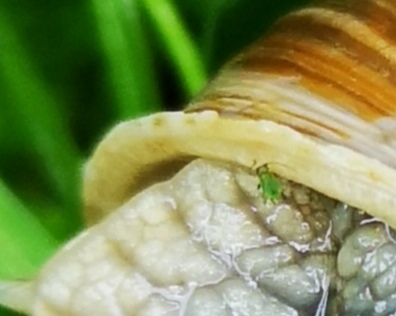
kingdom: Animalia
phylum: Mollusca
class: Gastropoda
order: Stylommatophora
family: Helicidae
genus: Helix
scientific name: Helix pomatia
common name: Roman snail
